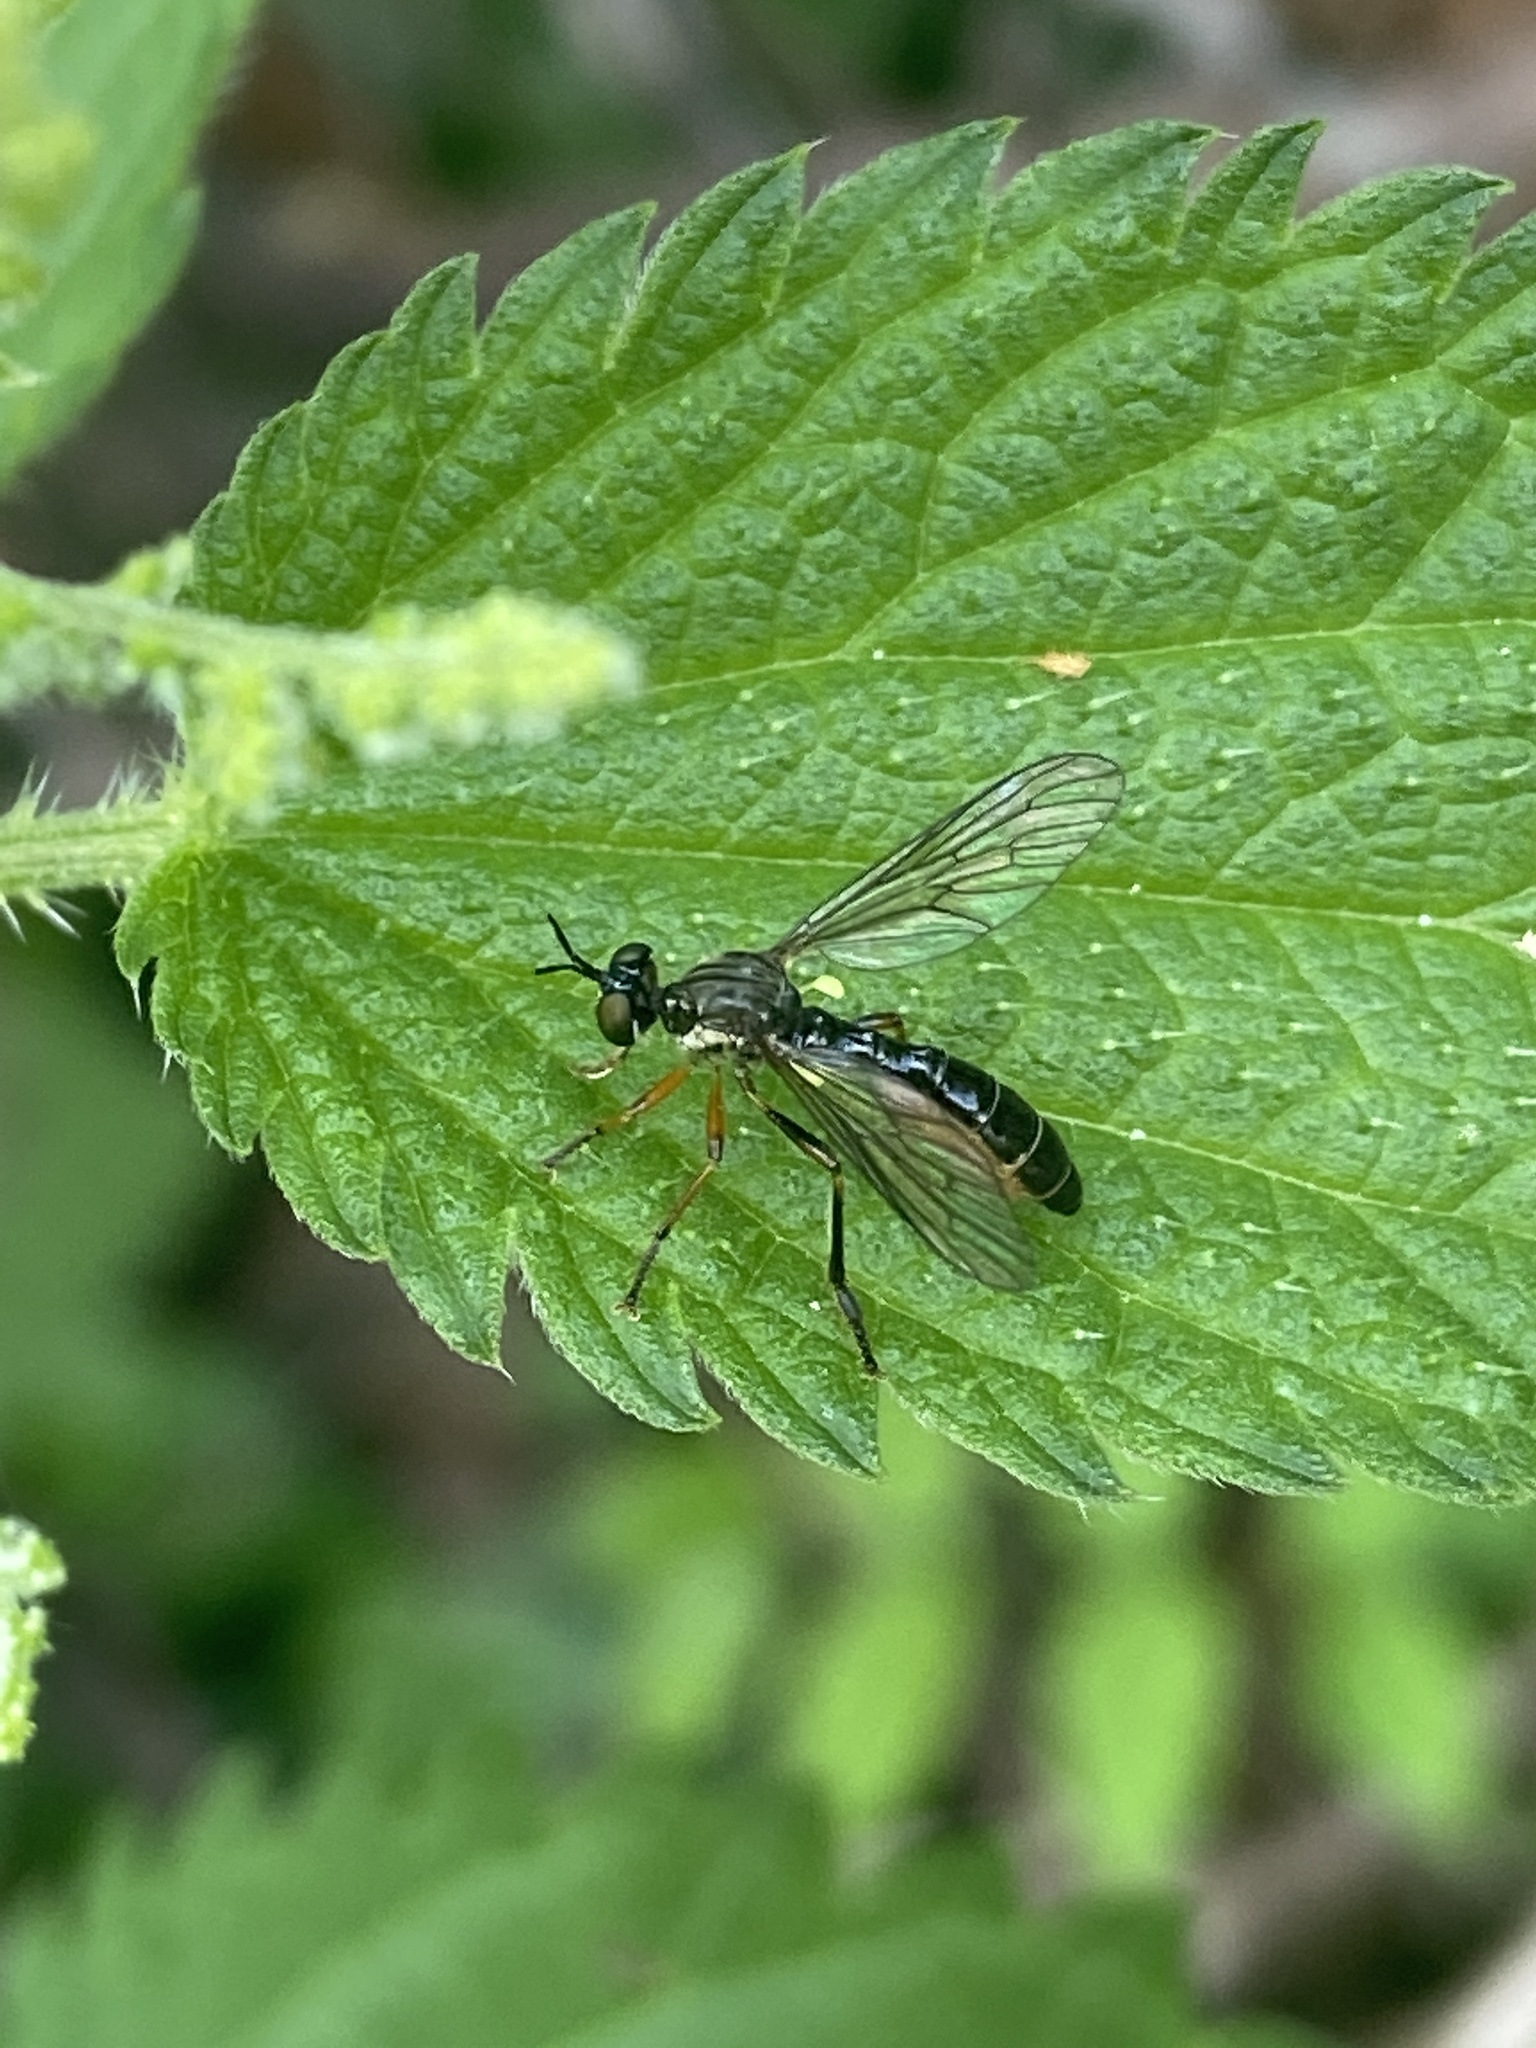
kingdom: Animalia
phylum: Arthropoda
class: Insecta
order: Diptera
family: Asilidae
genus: Dioctria
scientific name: Dioctria hyalipennis
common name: Stripe-legged robberfly
